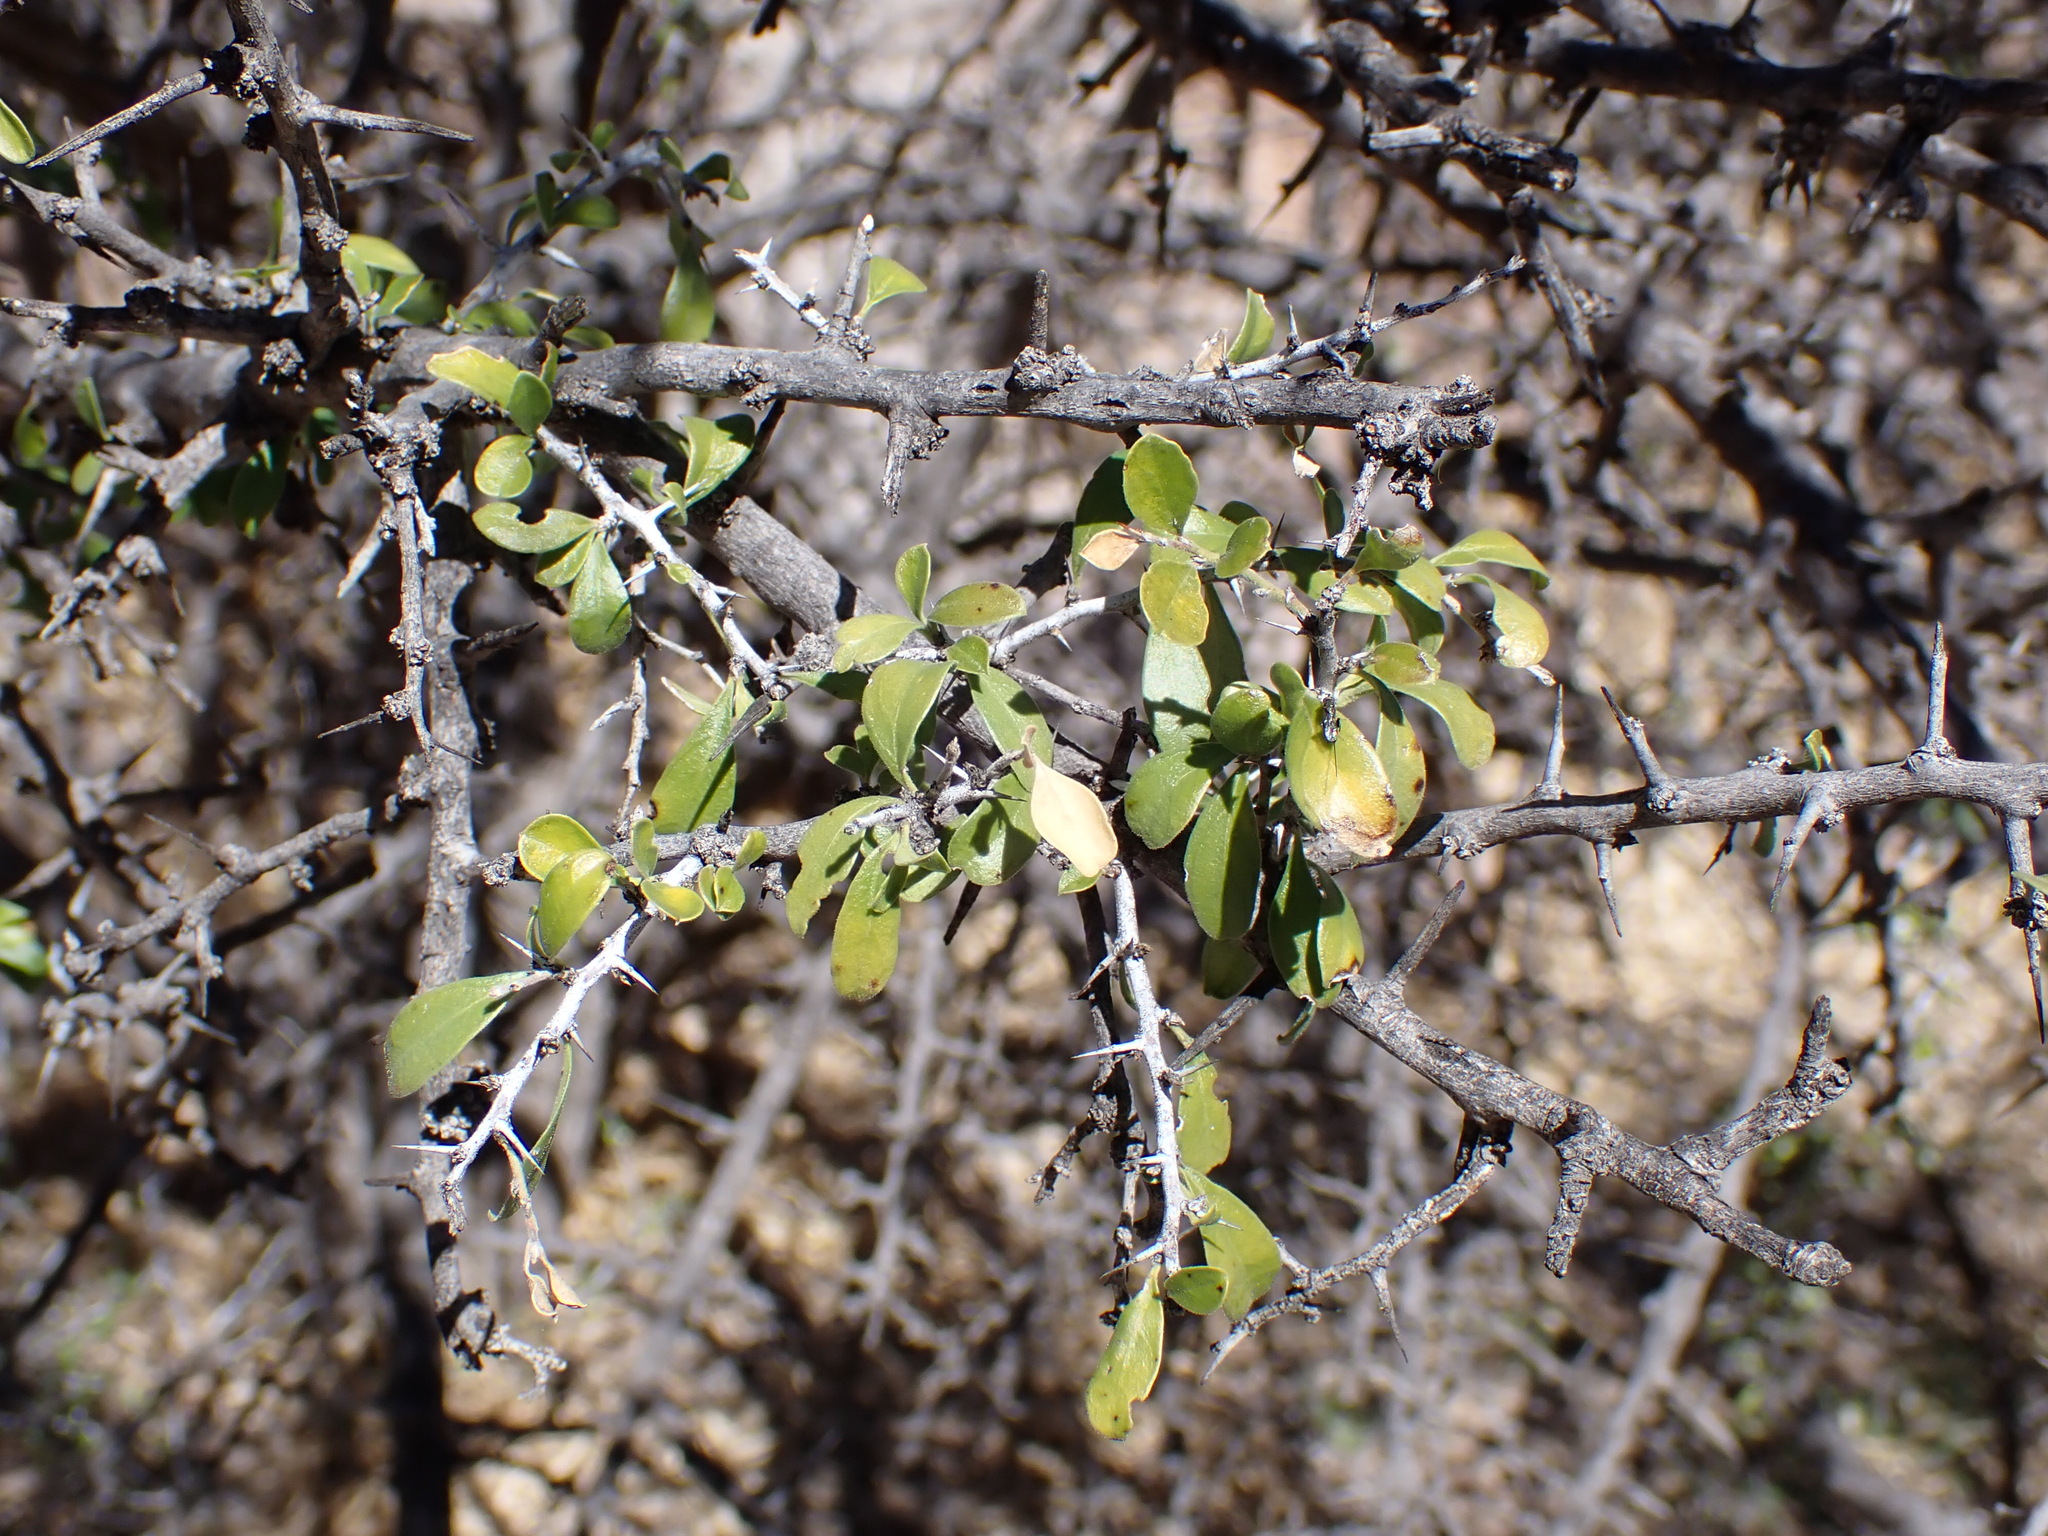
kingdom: Plantae
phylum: Tracheophyta
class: Magnoliopsida
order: Rosales
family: Rhamnaceae
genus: Condalia
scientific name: Condalia correllii
